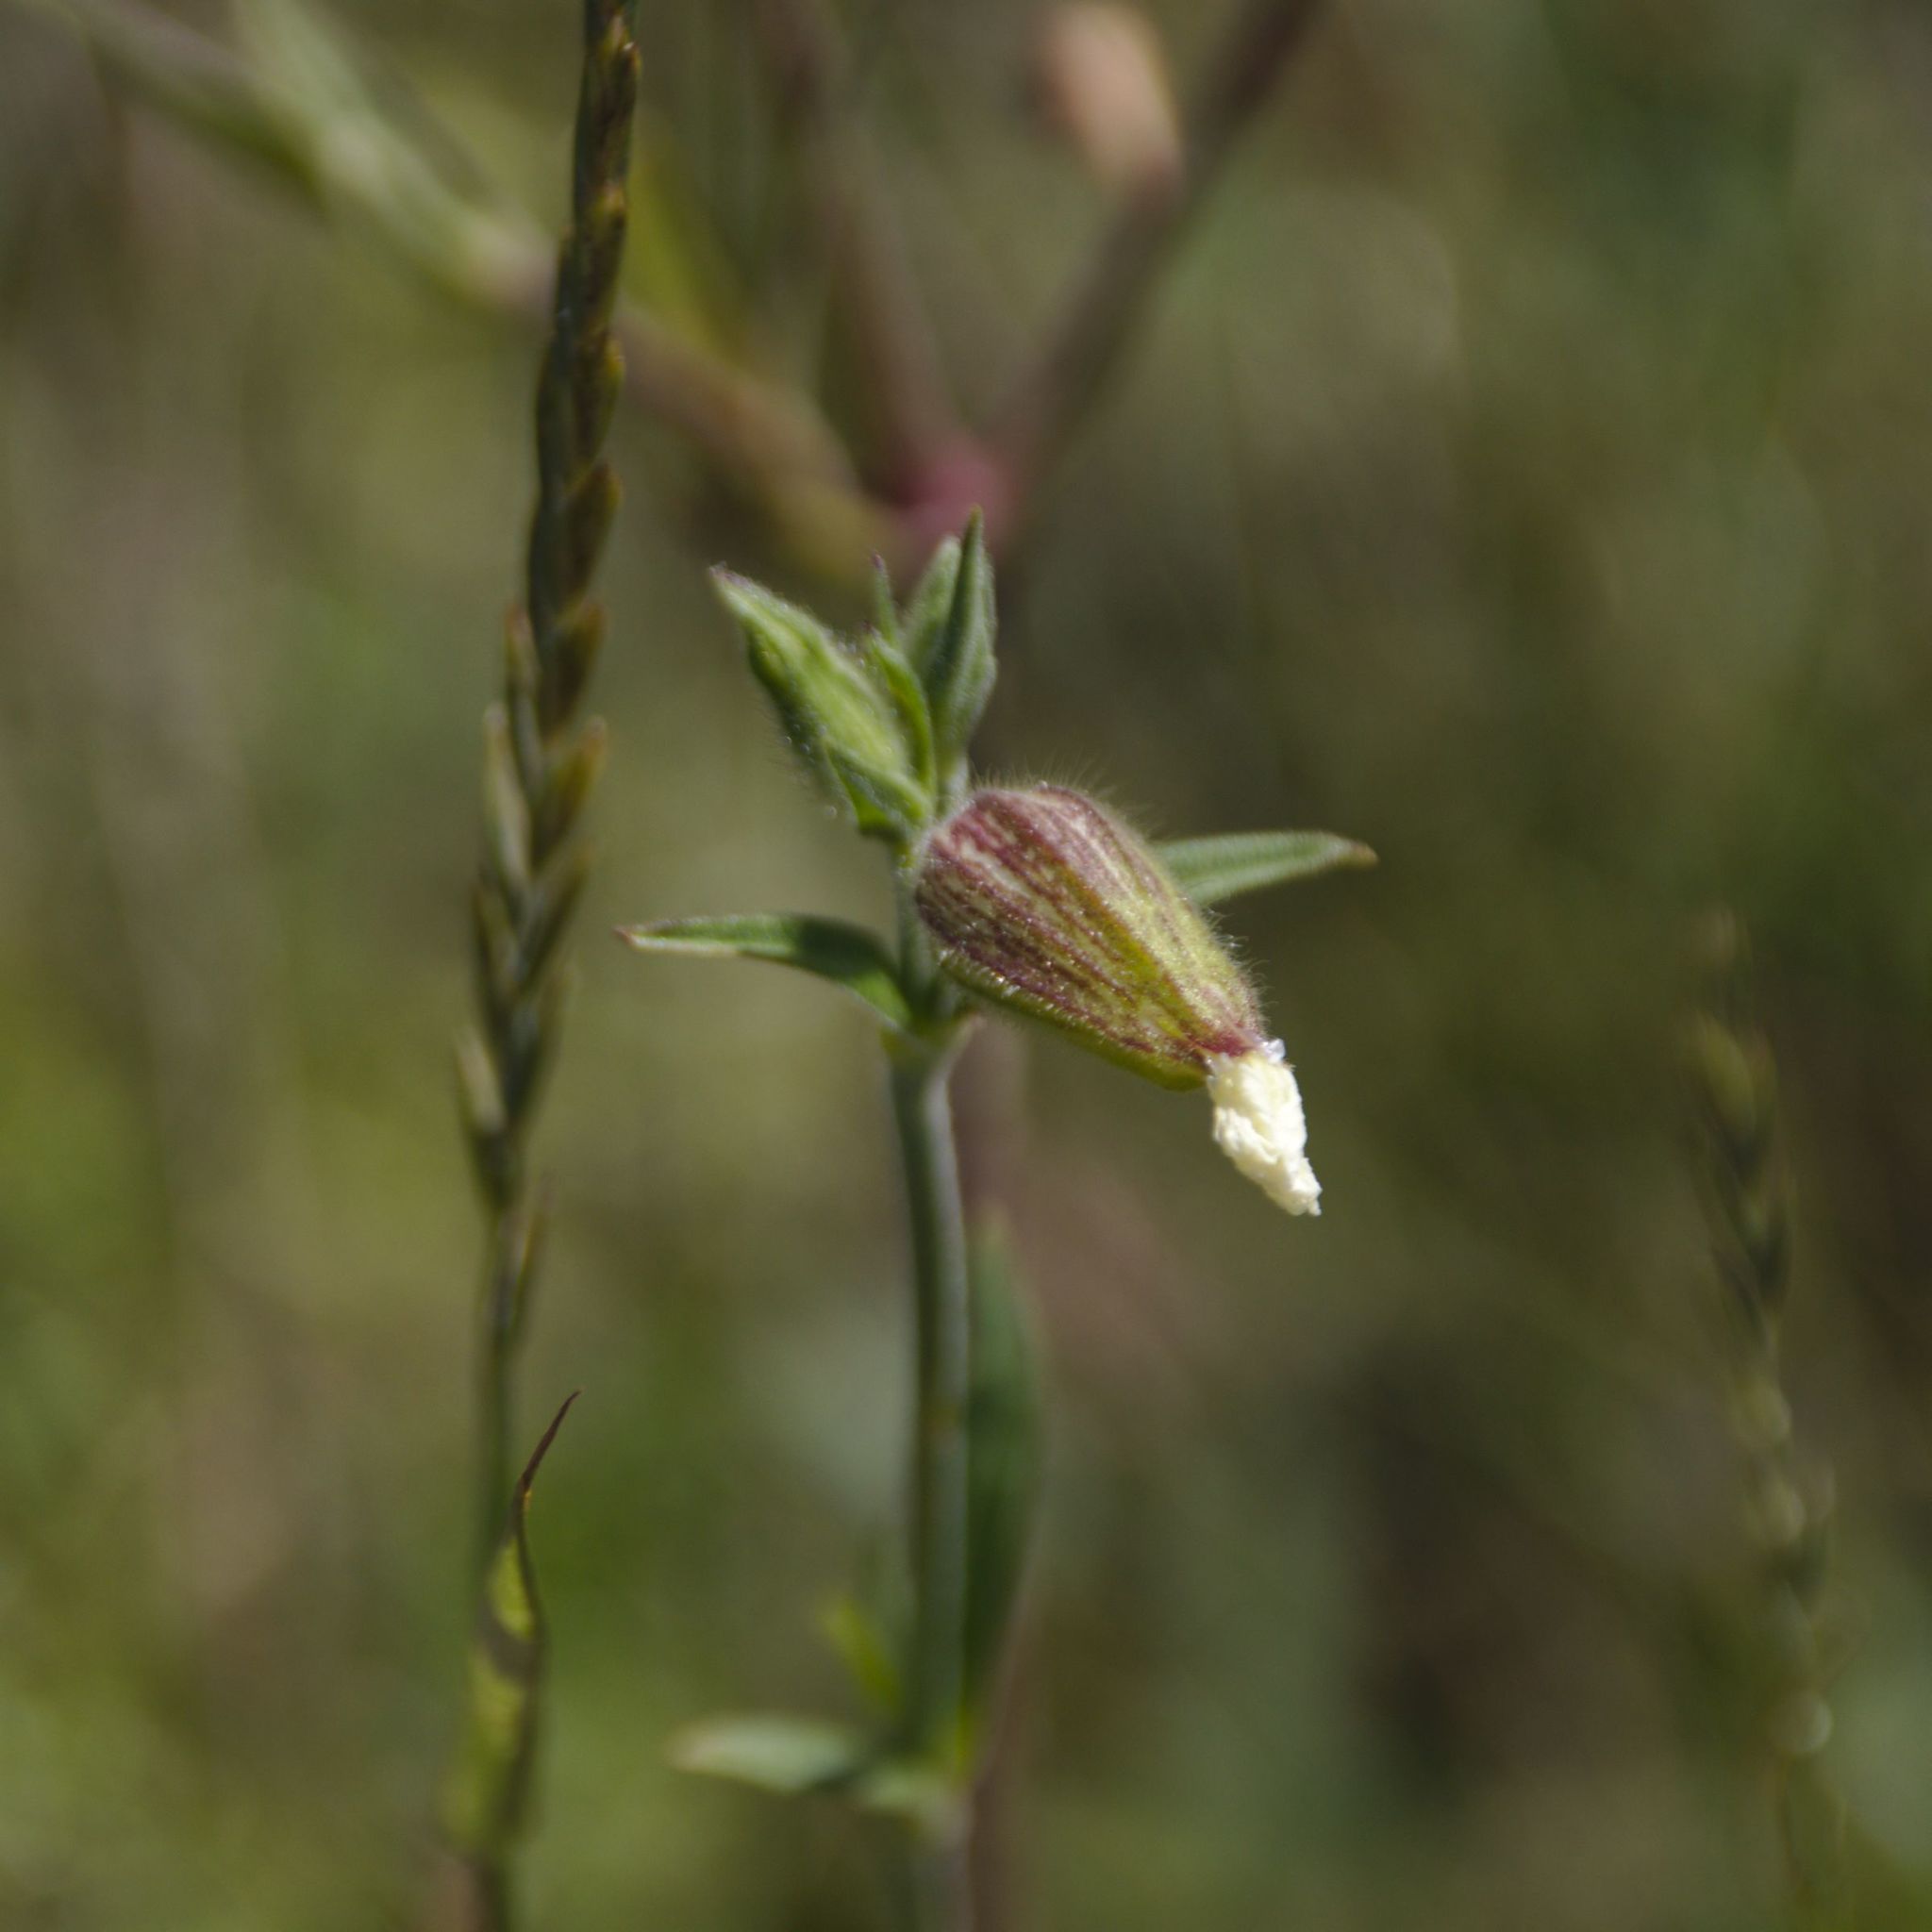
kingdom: Plantae
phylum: Tracheophyta
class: Magnoliopsida
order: Caryophyllales
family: Caryophyllaceae
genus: Silene
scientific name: Silene latifolia
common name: White campion
